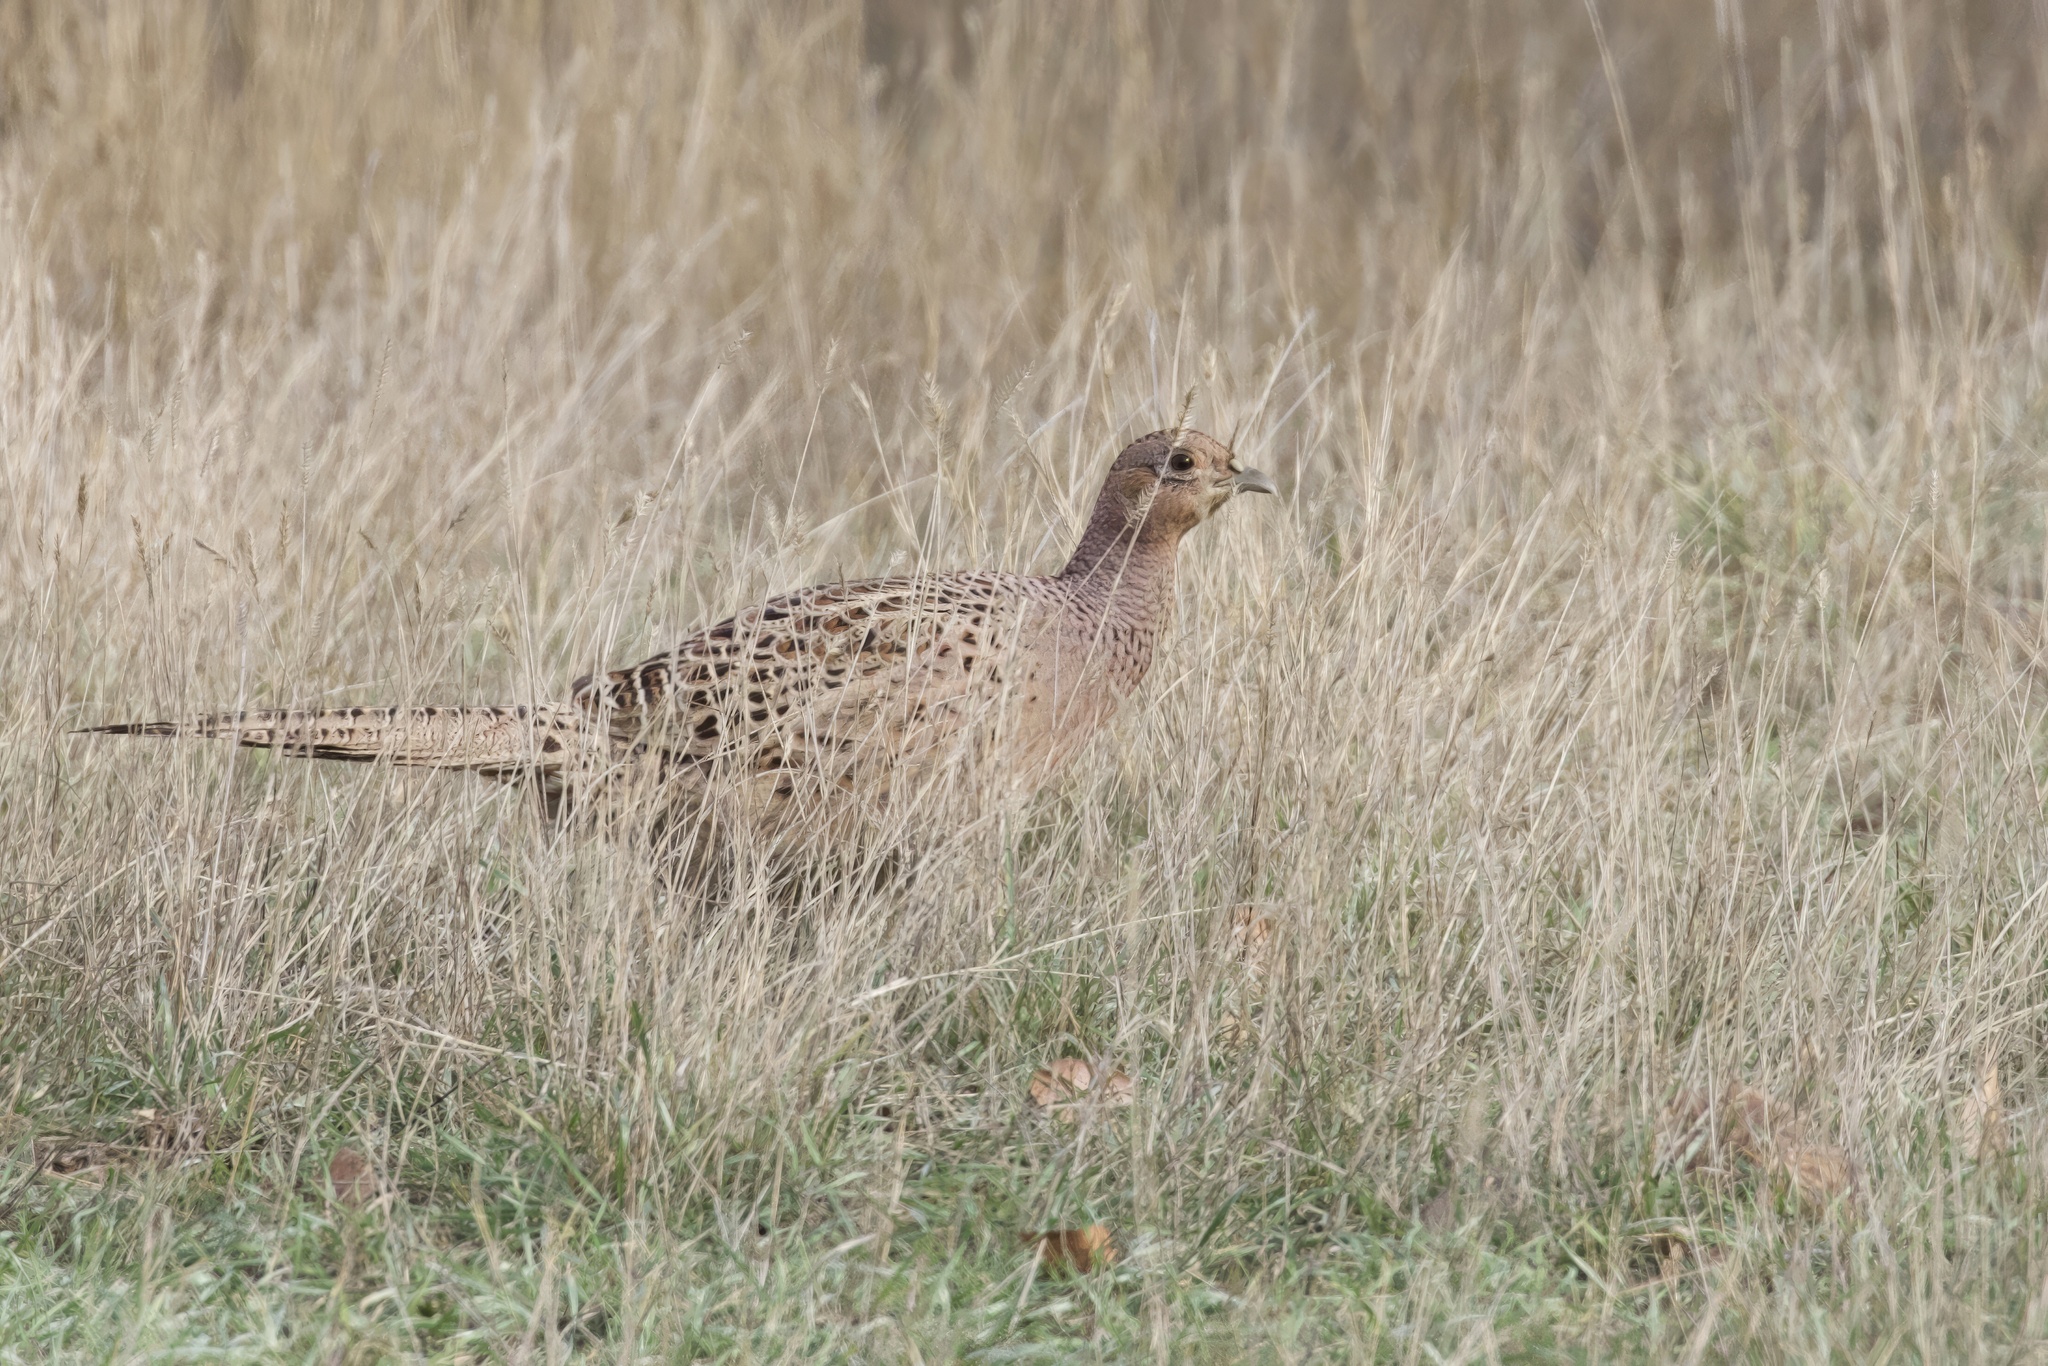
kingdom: Animalia
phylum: Chordata
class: Aves
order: Galliformes
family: Phasianidae
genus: Phasianus
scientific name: Phasianus colchicus
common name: Common pheasant
